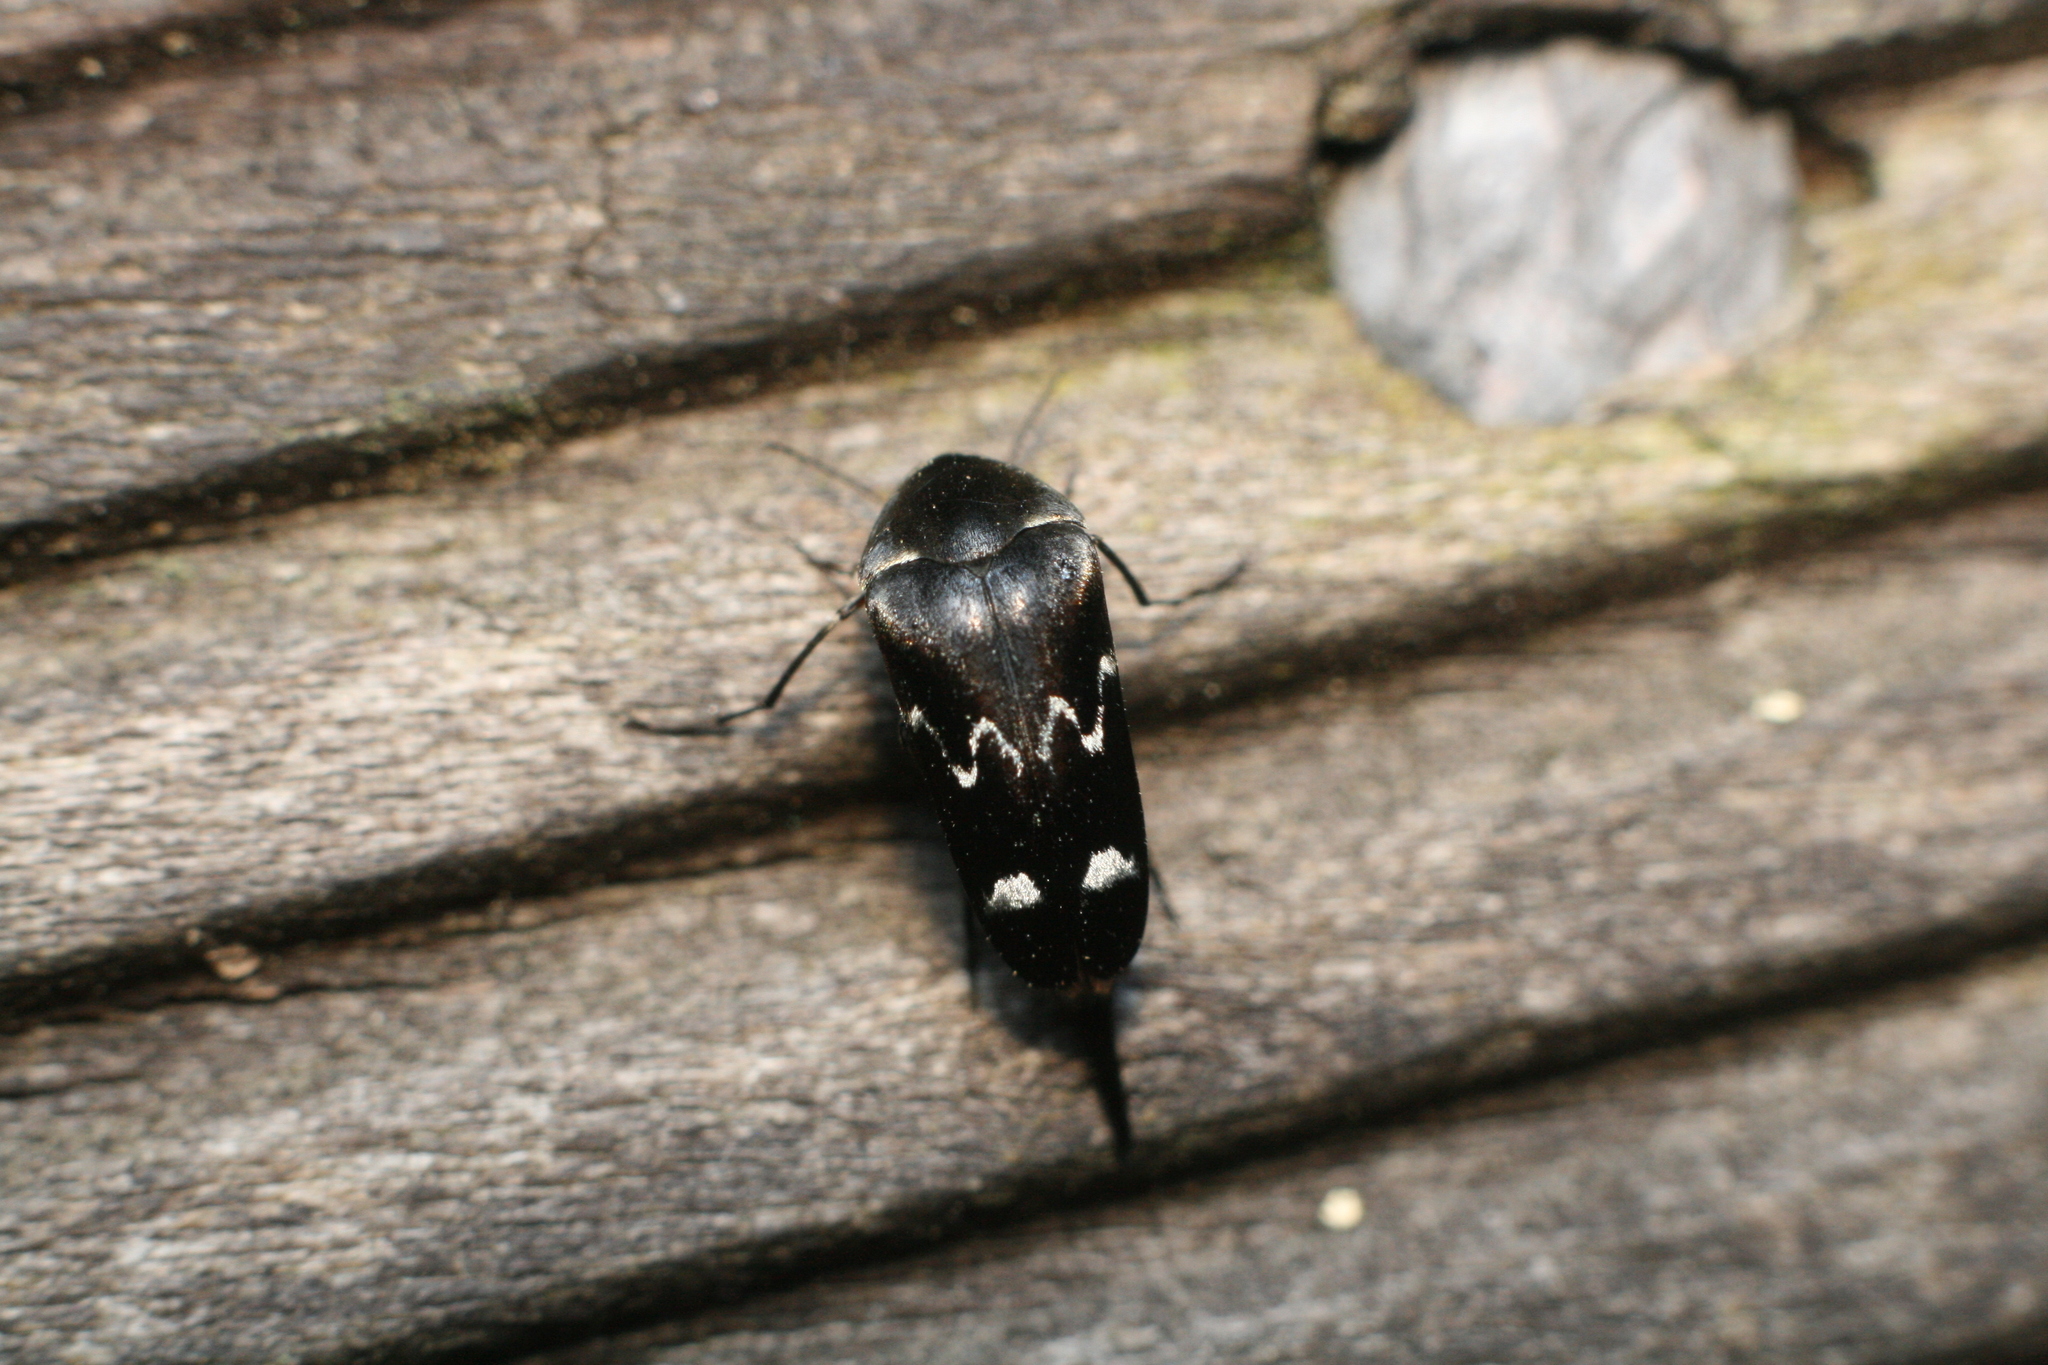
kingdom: Animalia
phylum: Arthropoda
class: Insecta
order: Coleoptera
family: Mordellidae
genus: Mordella
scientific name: Mordella
